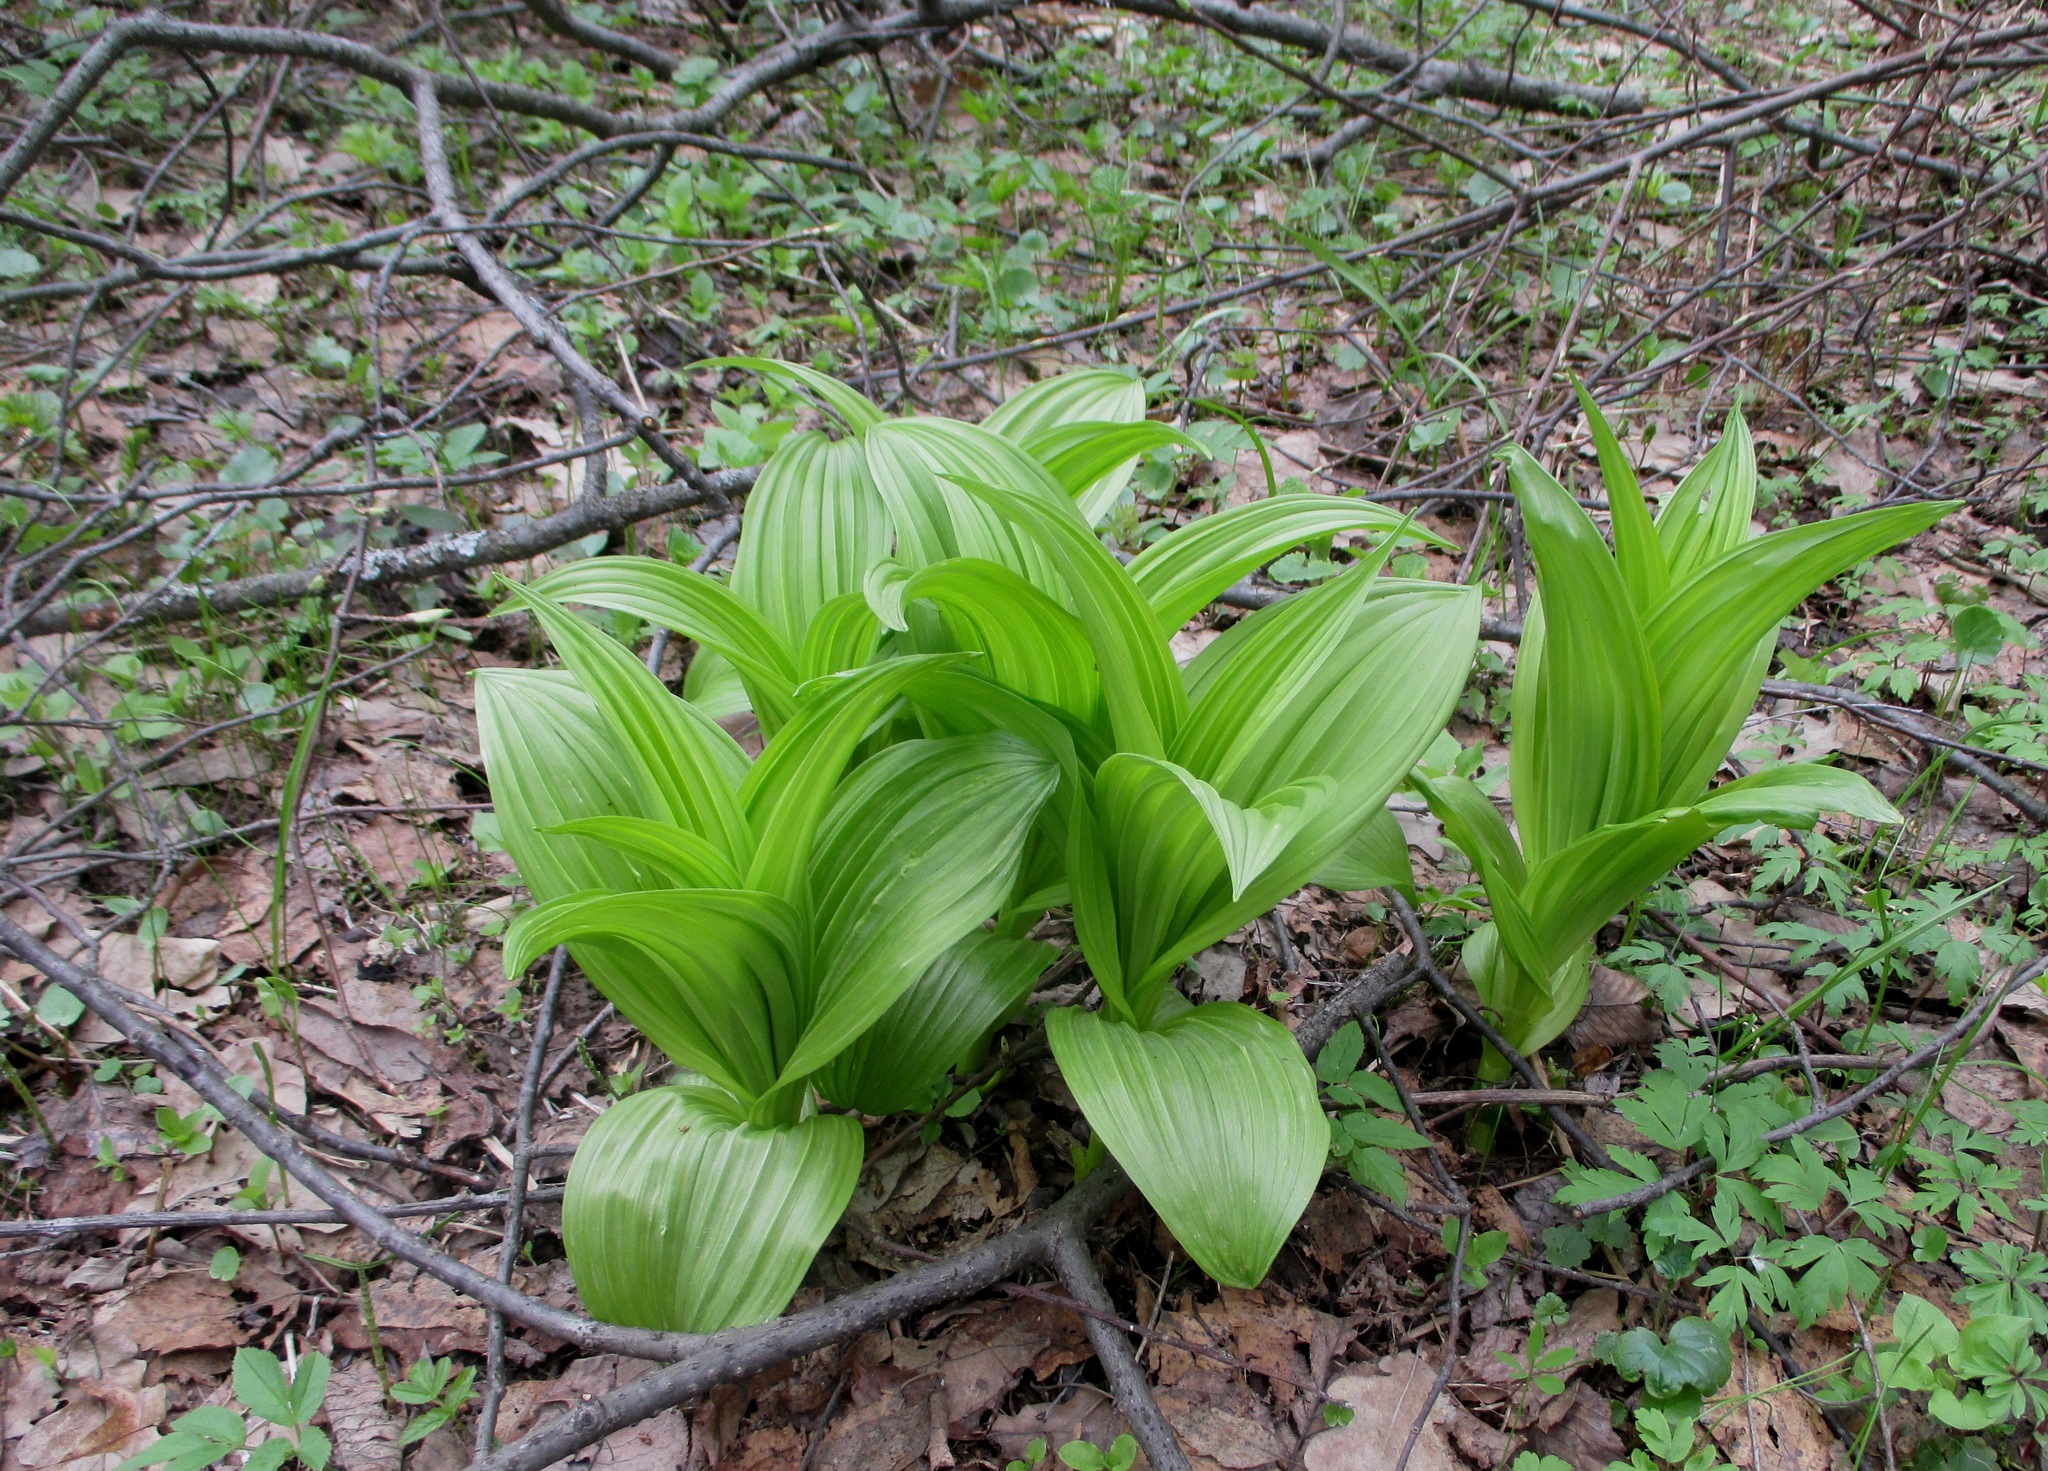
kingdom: Plantae
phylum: Tracheophyta
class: Liliopsida
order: Liliales
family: Melanthiaceae
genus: Veratrum
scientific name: Veratrum lobelianum
